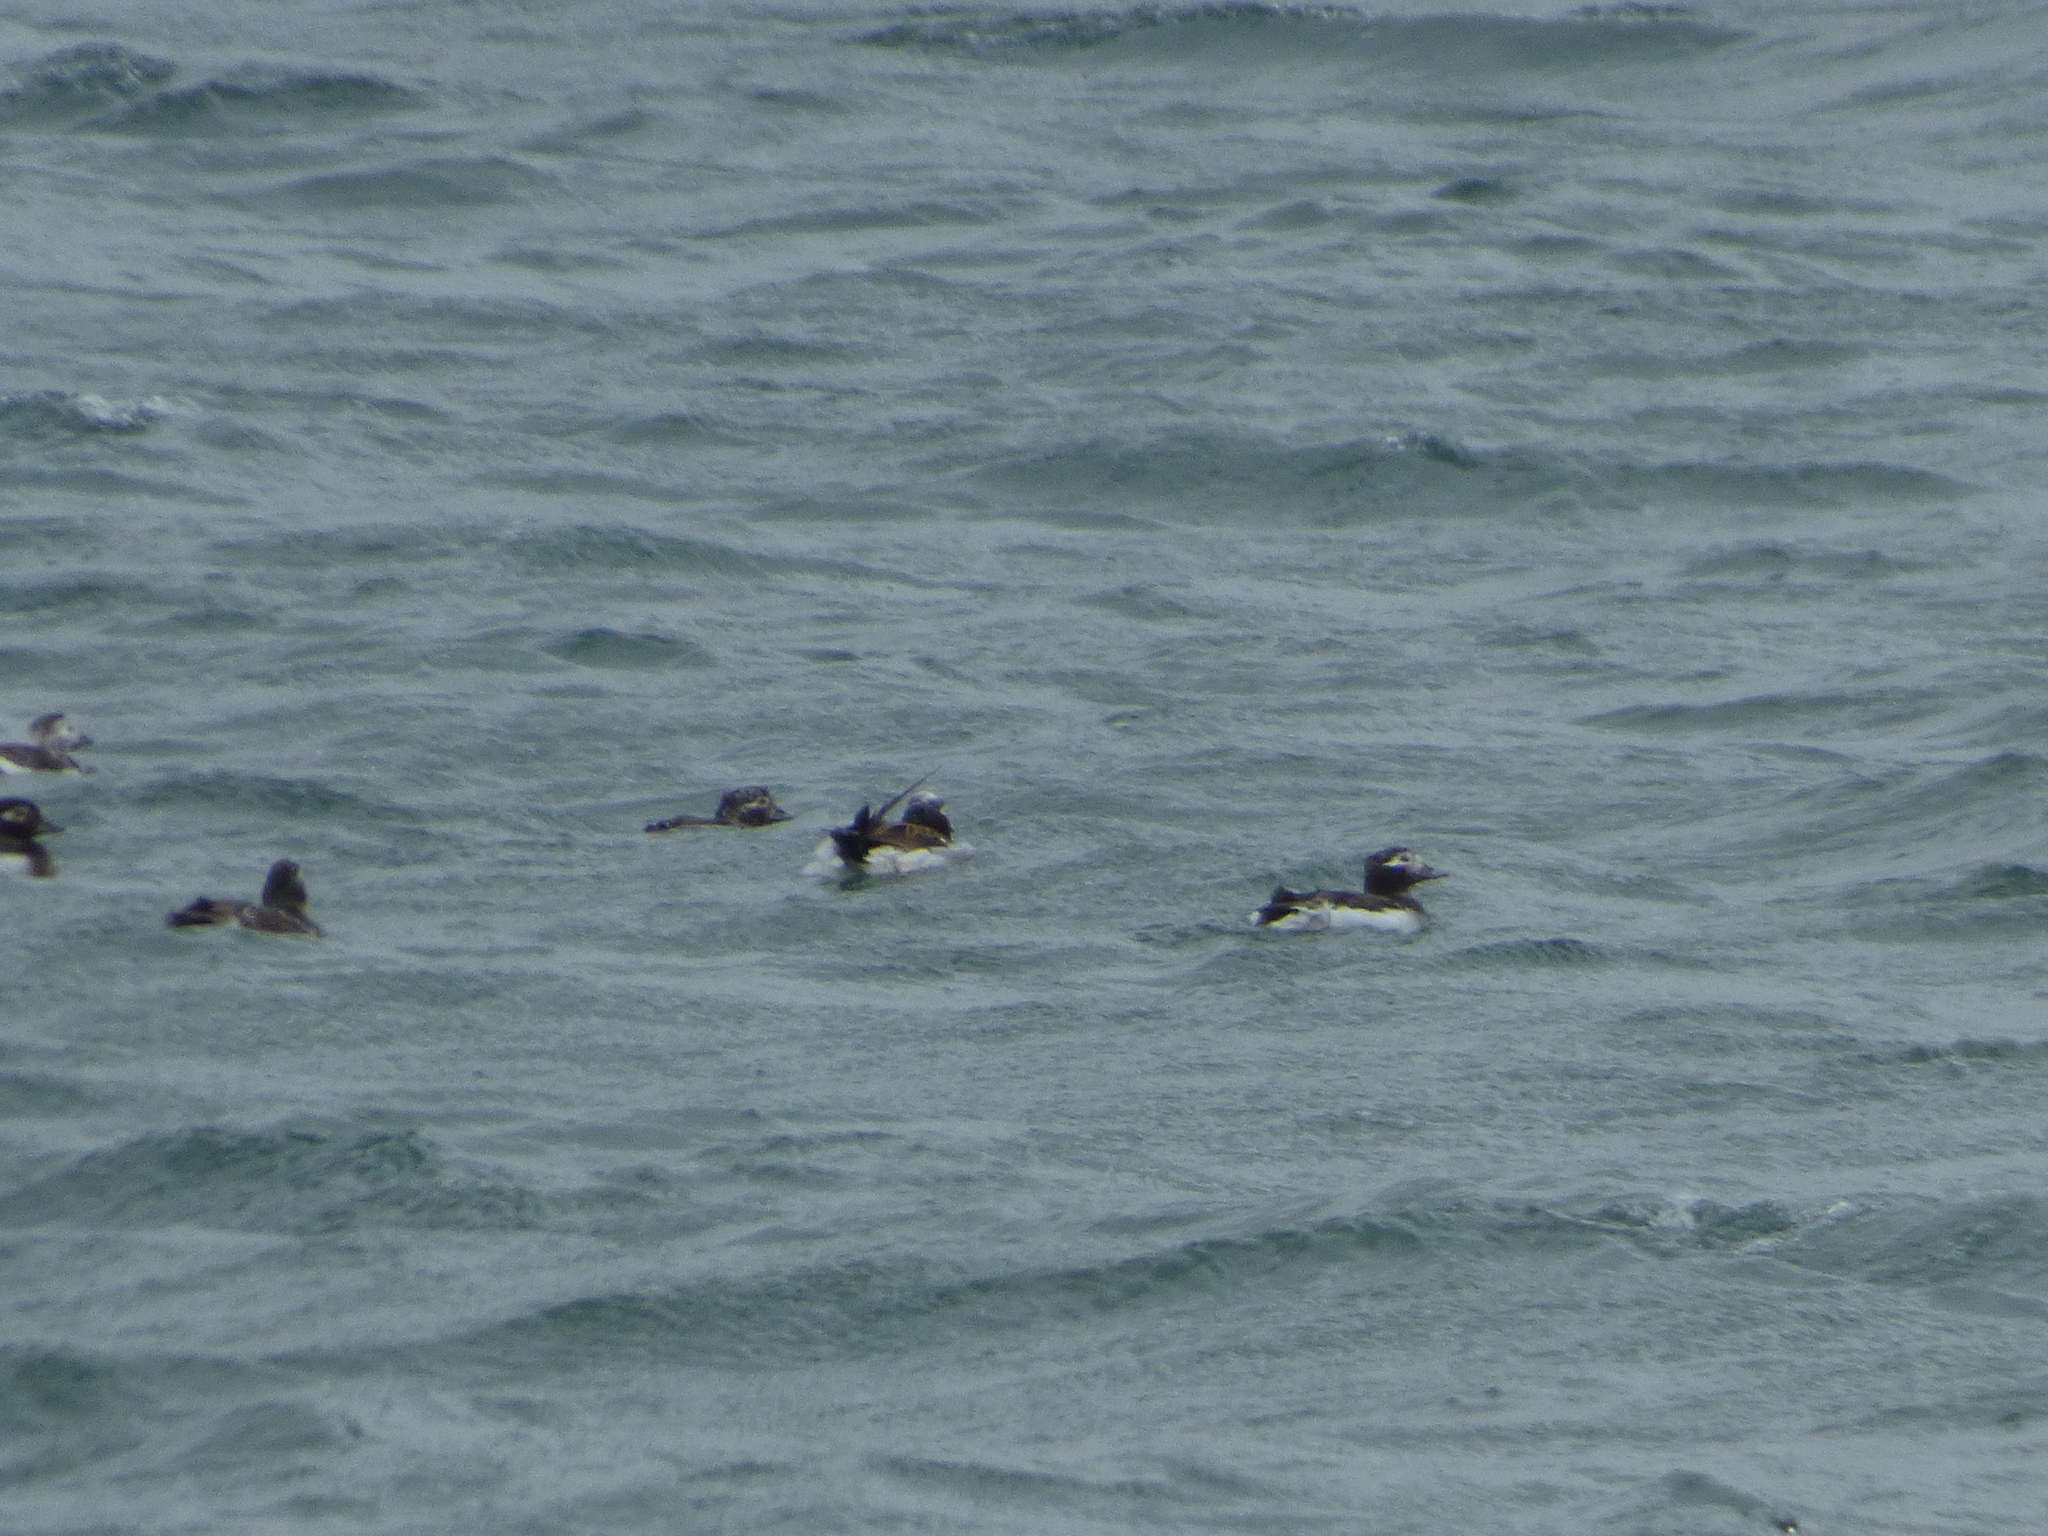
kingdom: Animalia
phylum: Chordata
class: Aves
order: Anseriformes
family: Anatidae
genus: Clangula
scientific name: Clangula hyemalis
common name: Long-tailed duck
